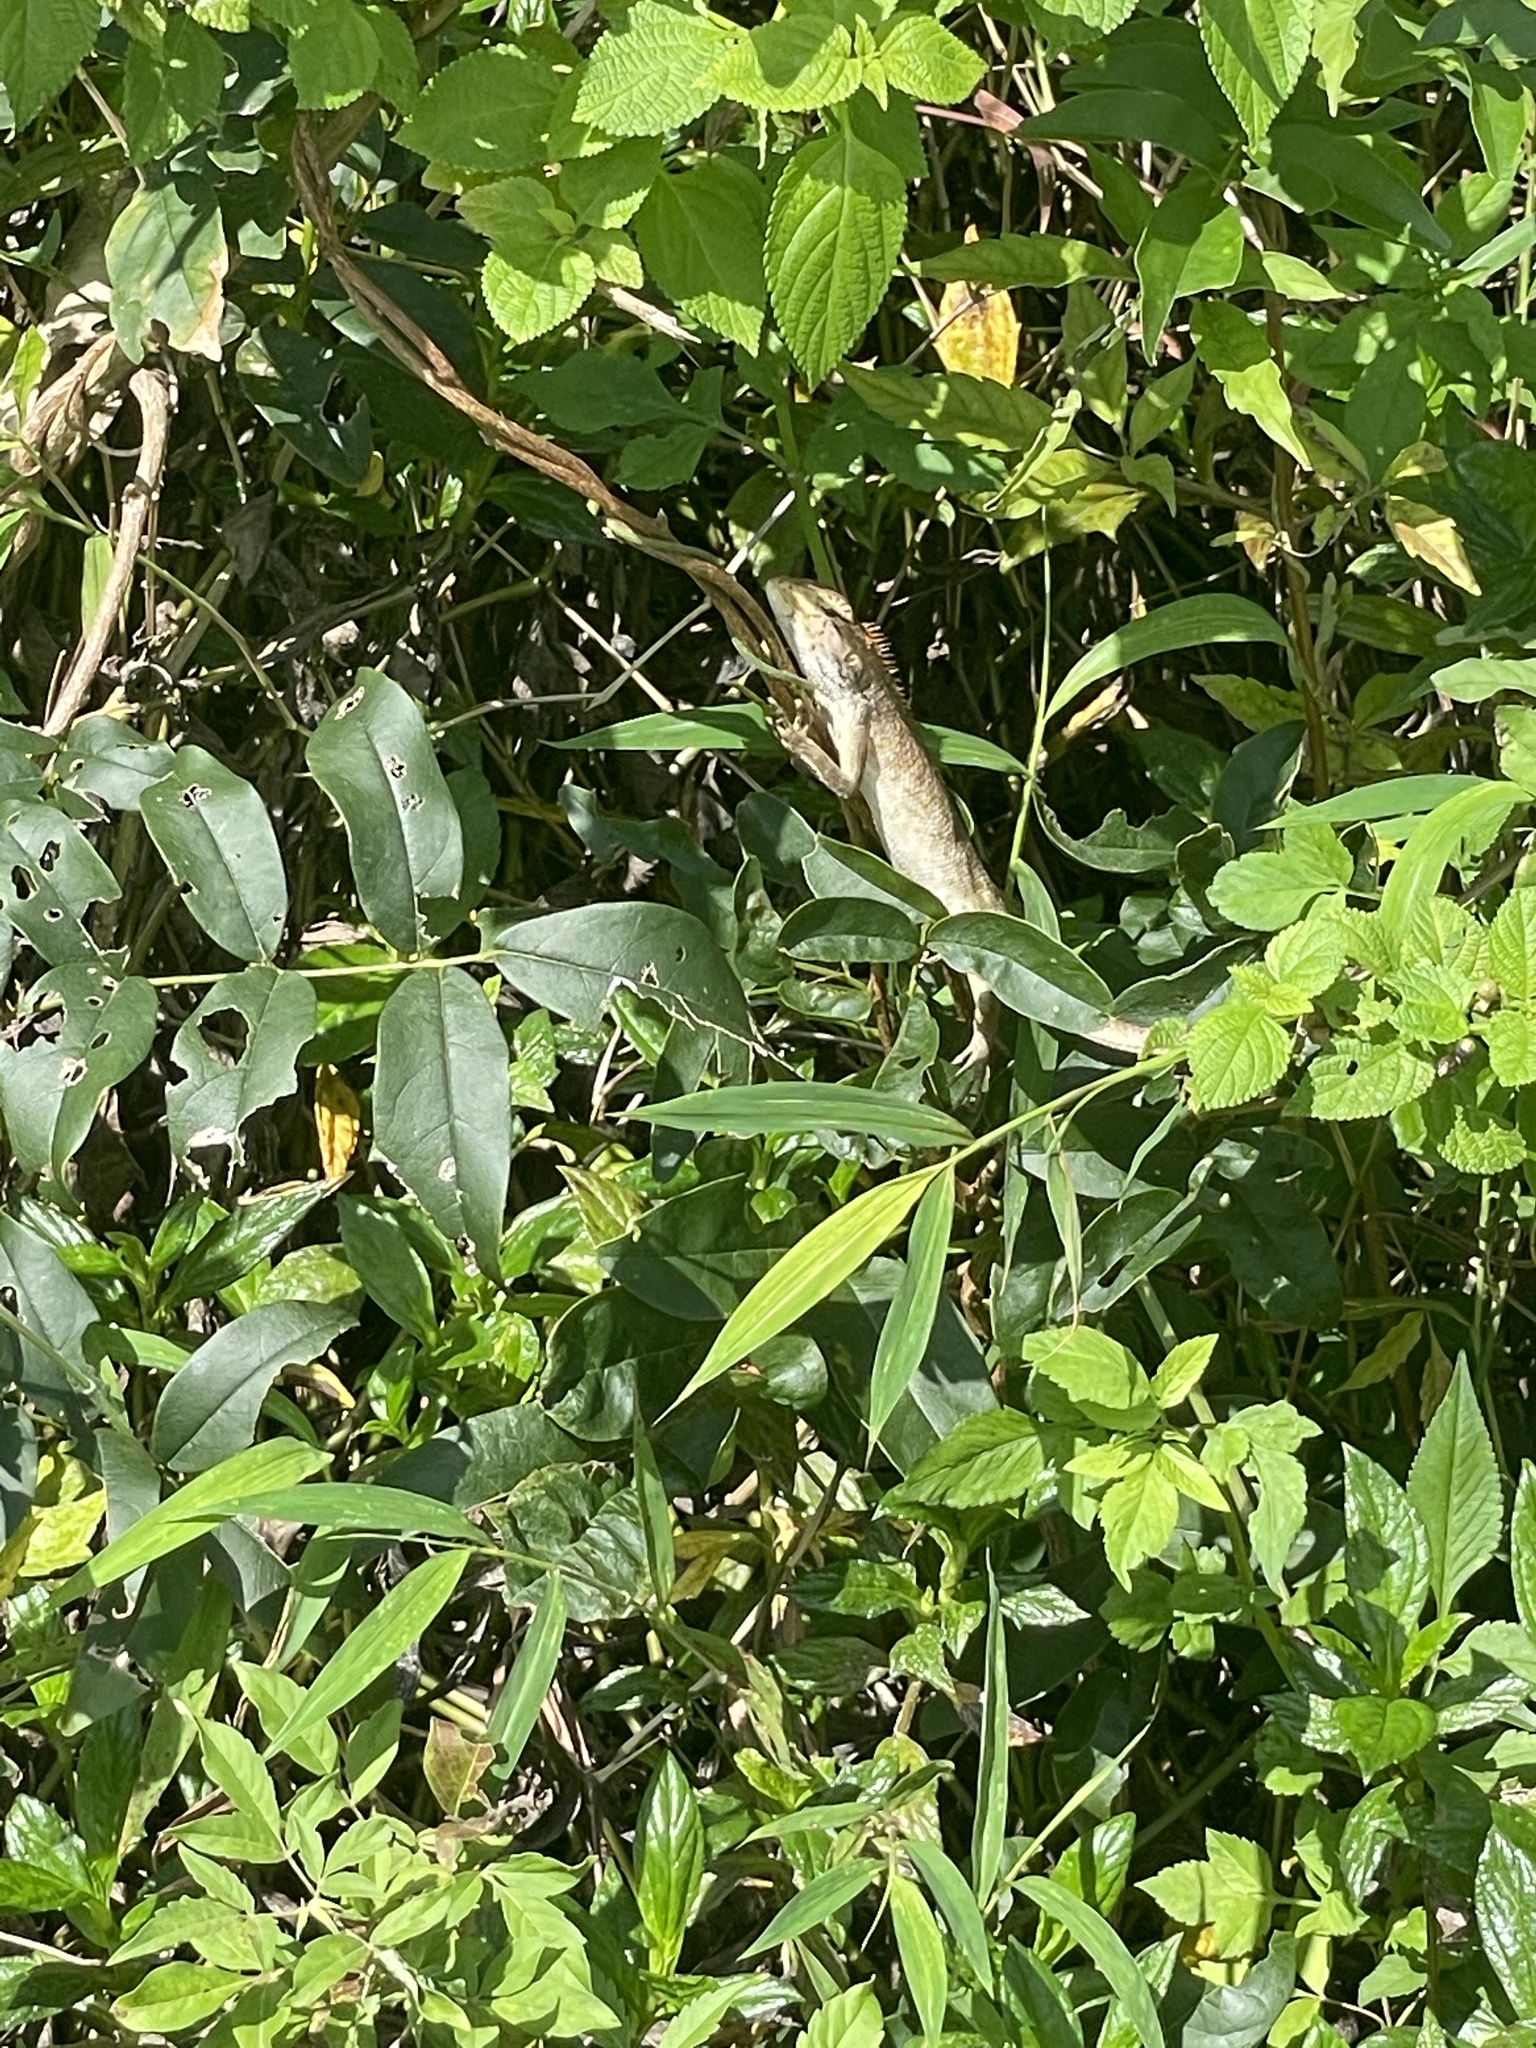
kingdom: Animalia
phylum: Chordata
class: Squamata
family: Agamidae
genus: Calotes
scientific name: Calotes versicolor
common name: Oriental garden lizard
